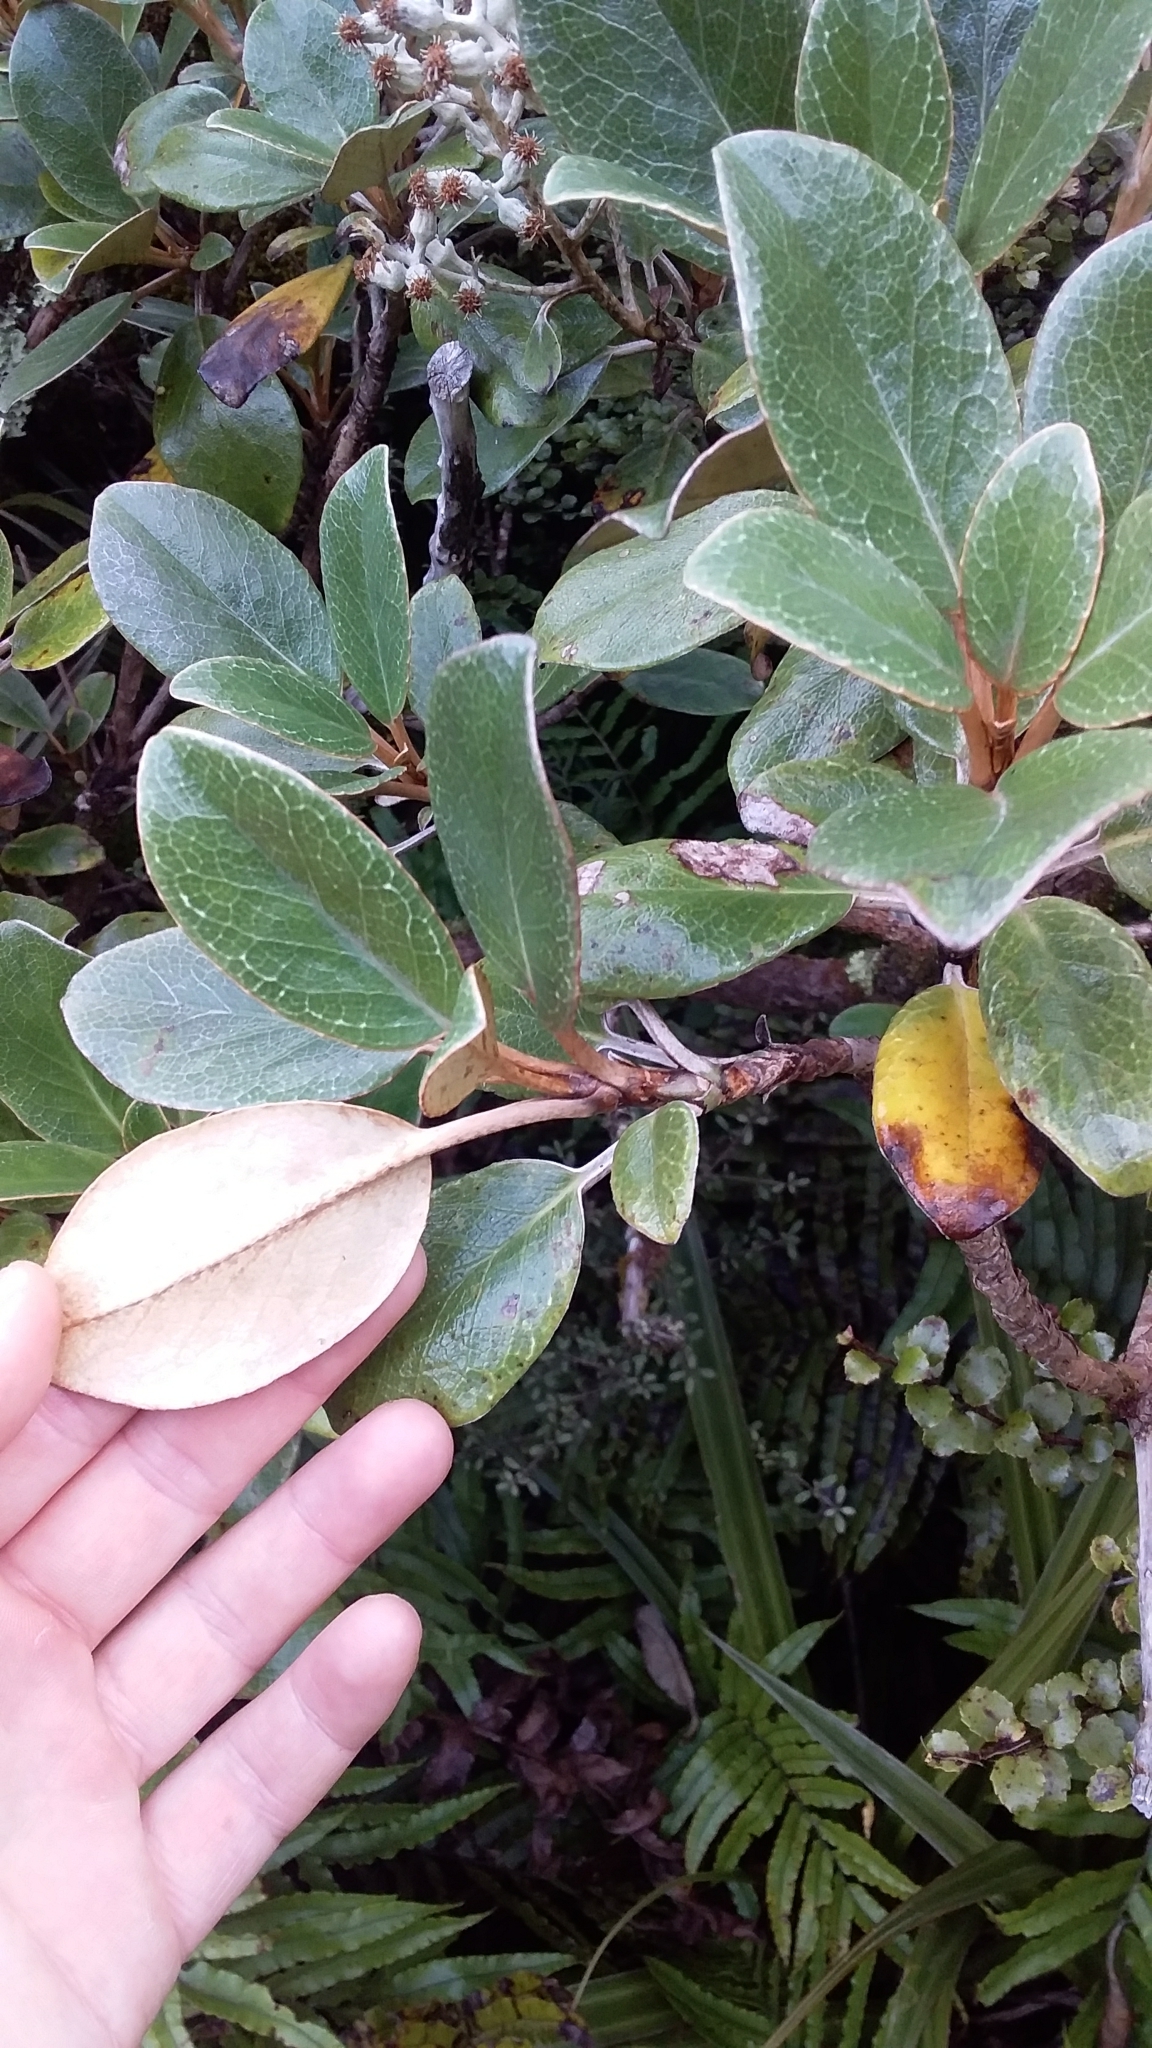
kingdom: Plantae
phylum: Tracheophyta
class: Magnoliopsida
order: Asterales
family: Asteraceae
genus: Brachyglottis
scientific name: Brachyglottis elaeagnifolia
